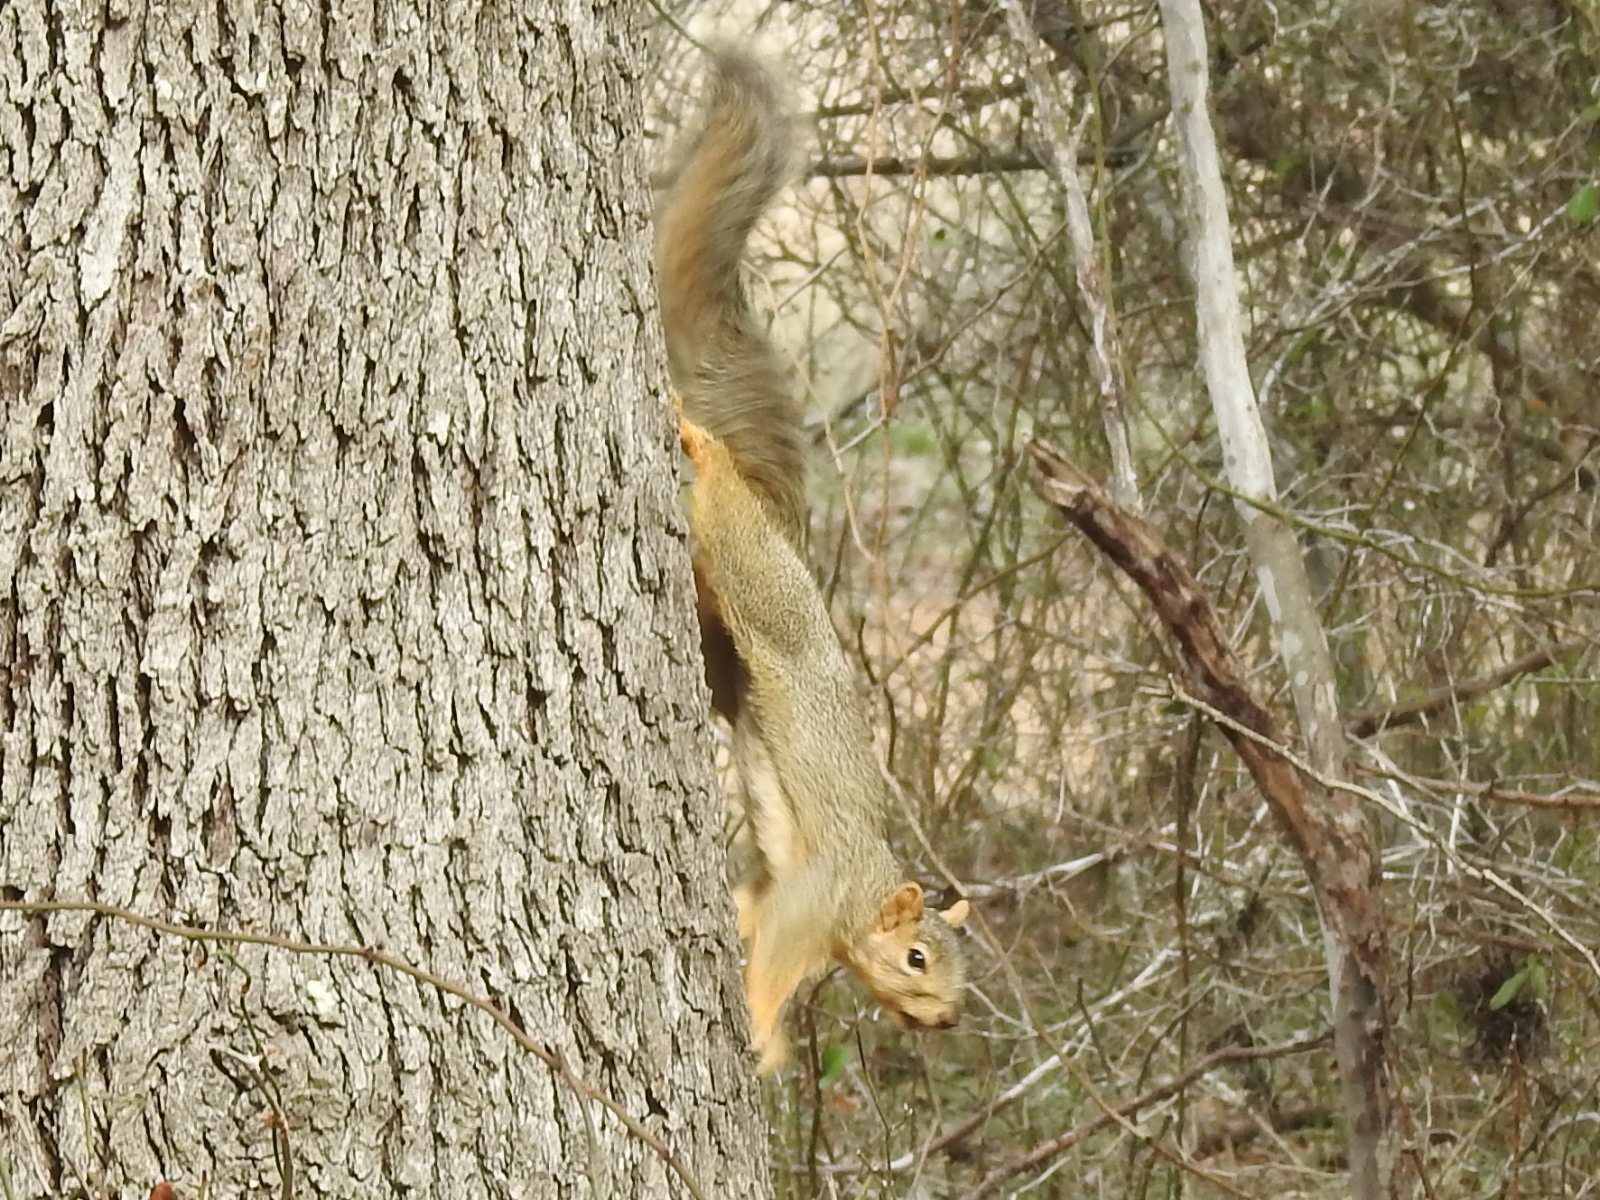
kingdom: Animalia
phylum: Chordata
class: Mammalia
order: Rodentia
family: Sciuridae
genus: Sciurus
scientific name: Sciurus niger
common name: Fox squirrel
